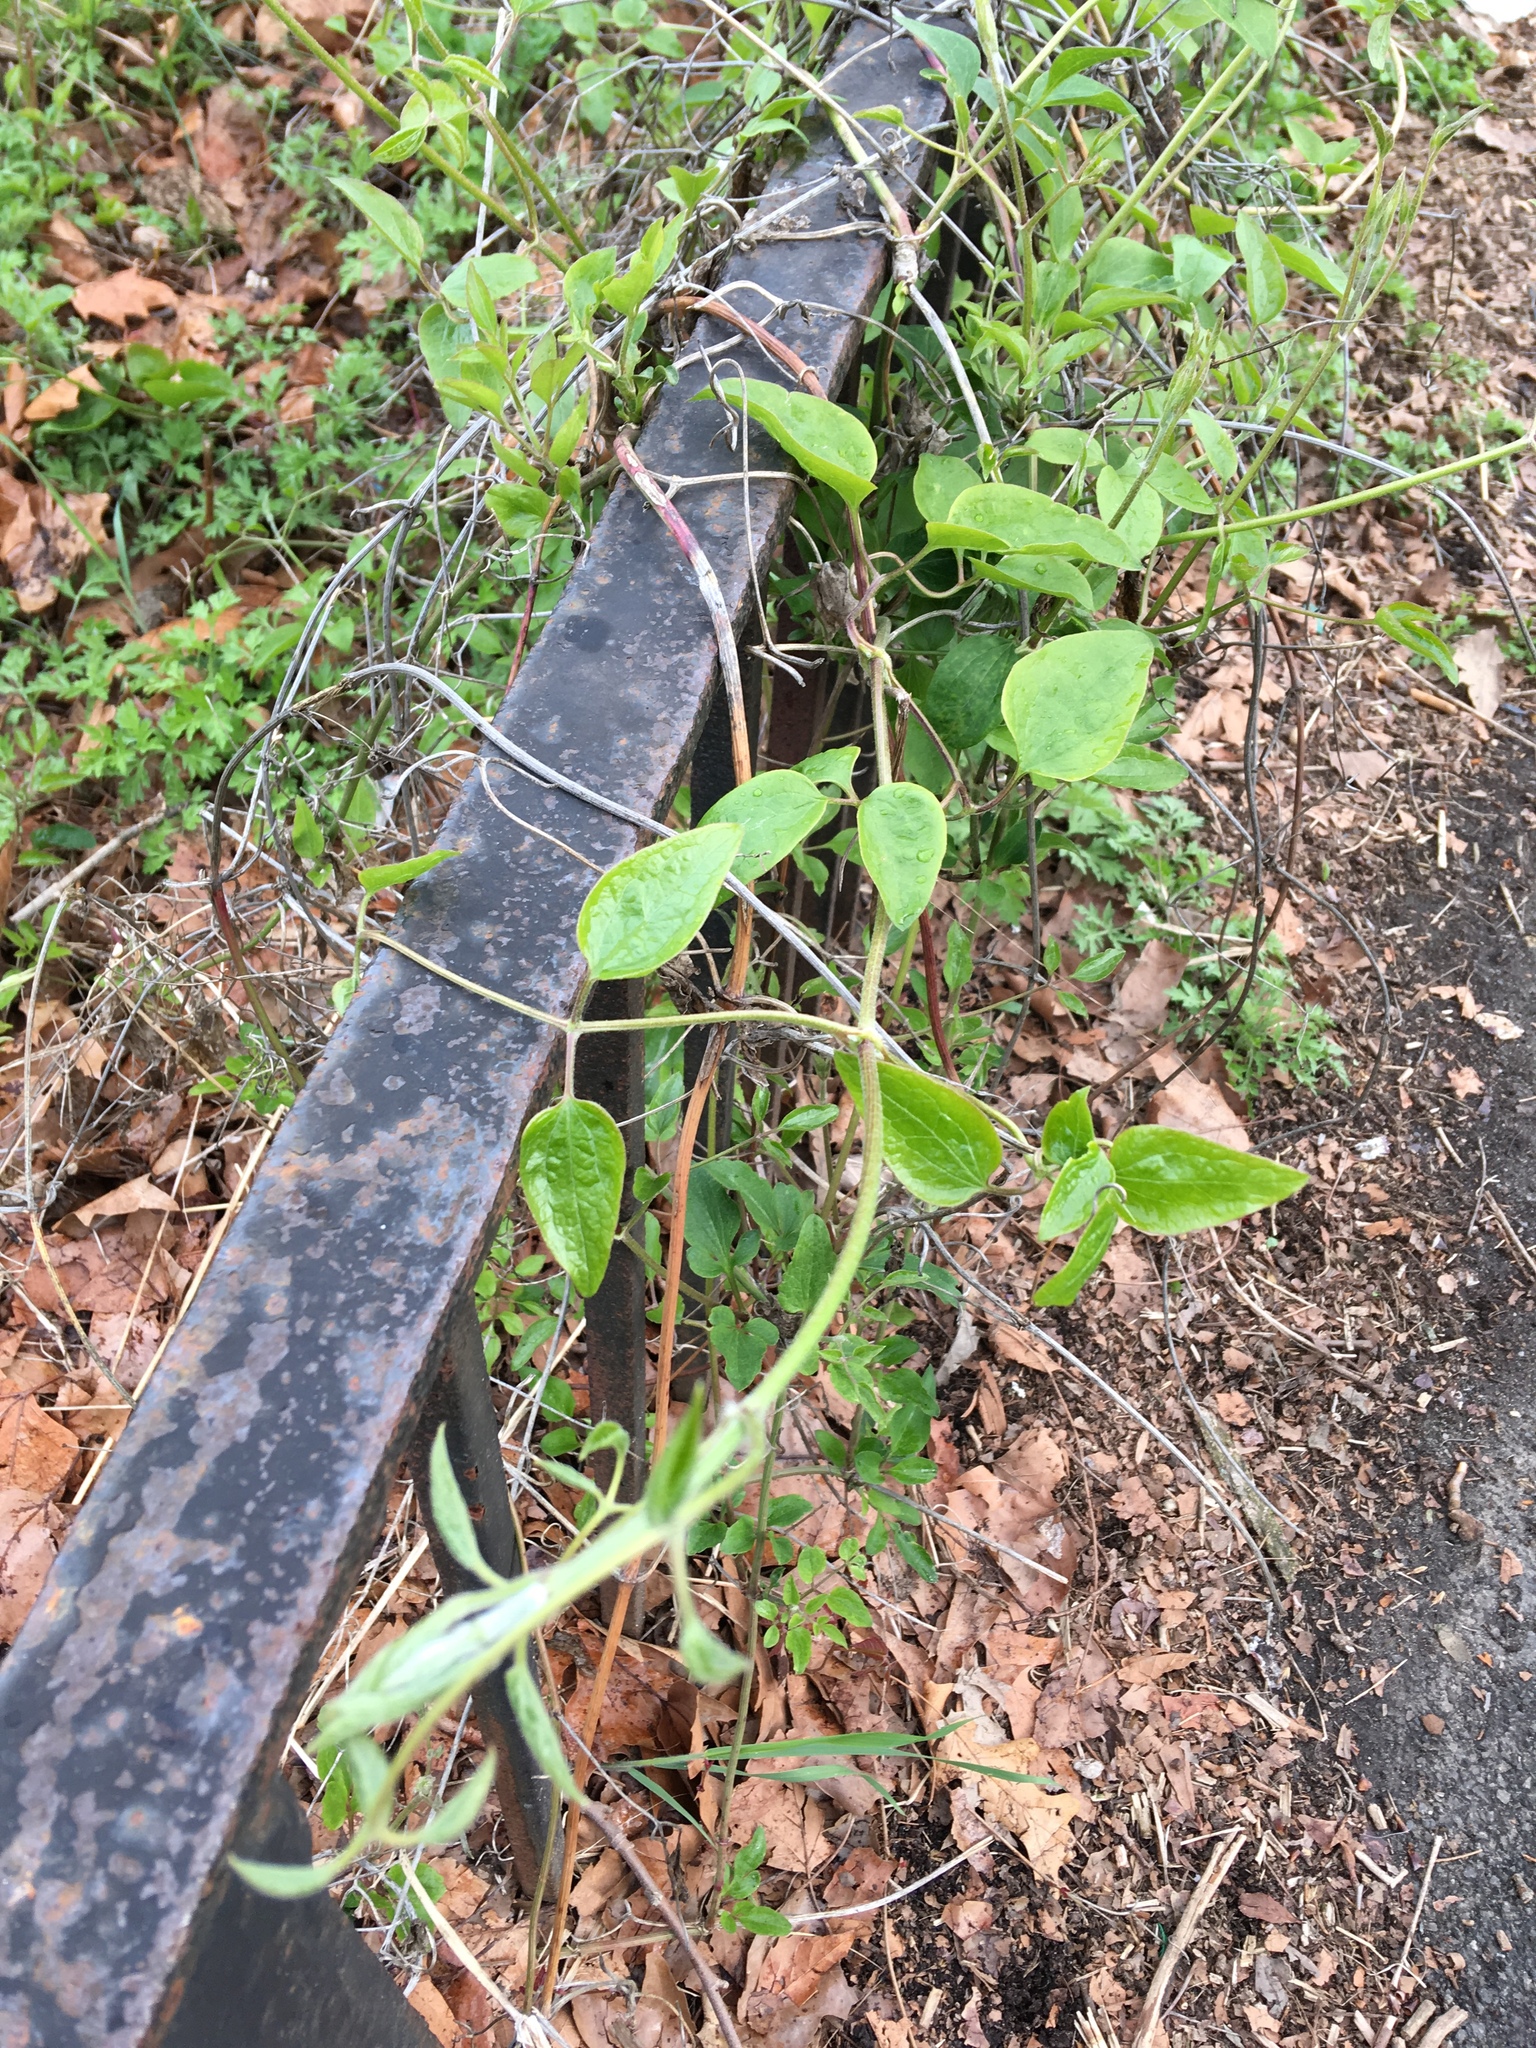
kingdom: Plantae
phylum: Tracheophyta
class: Magnoliopsida
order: Ranunculales
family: Ranunculaceae
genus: Clematis
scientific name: Clematis terniflora
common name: Sweet autumn clematis
